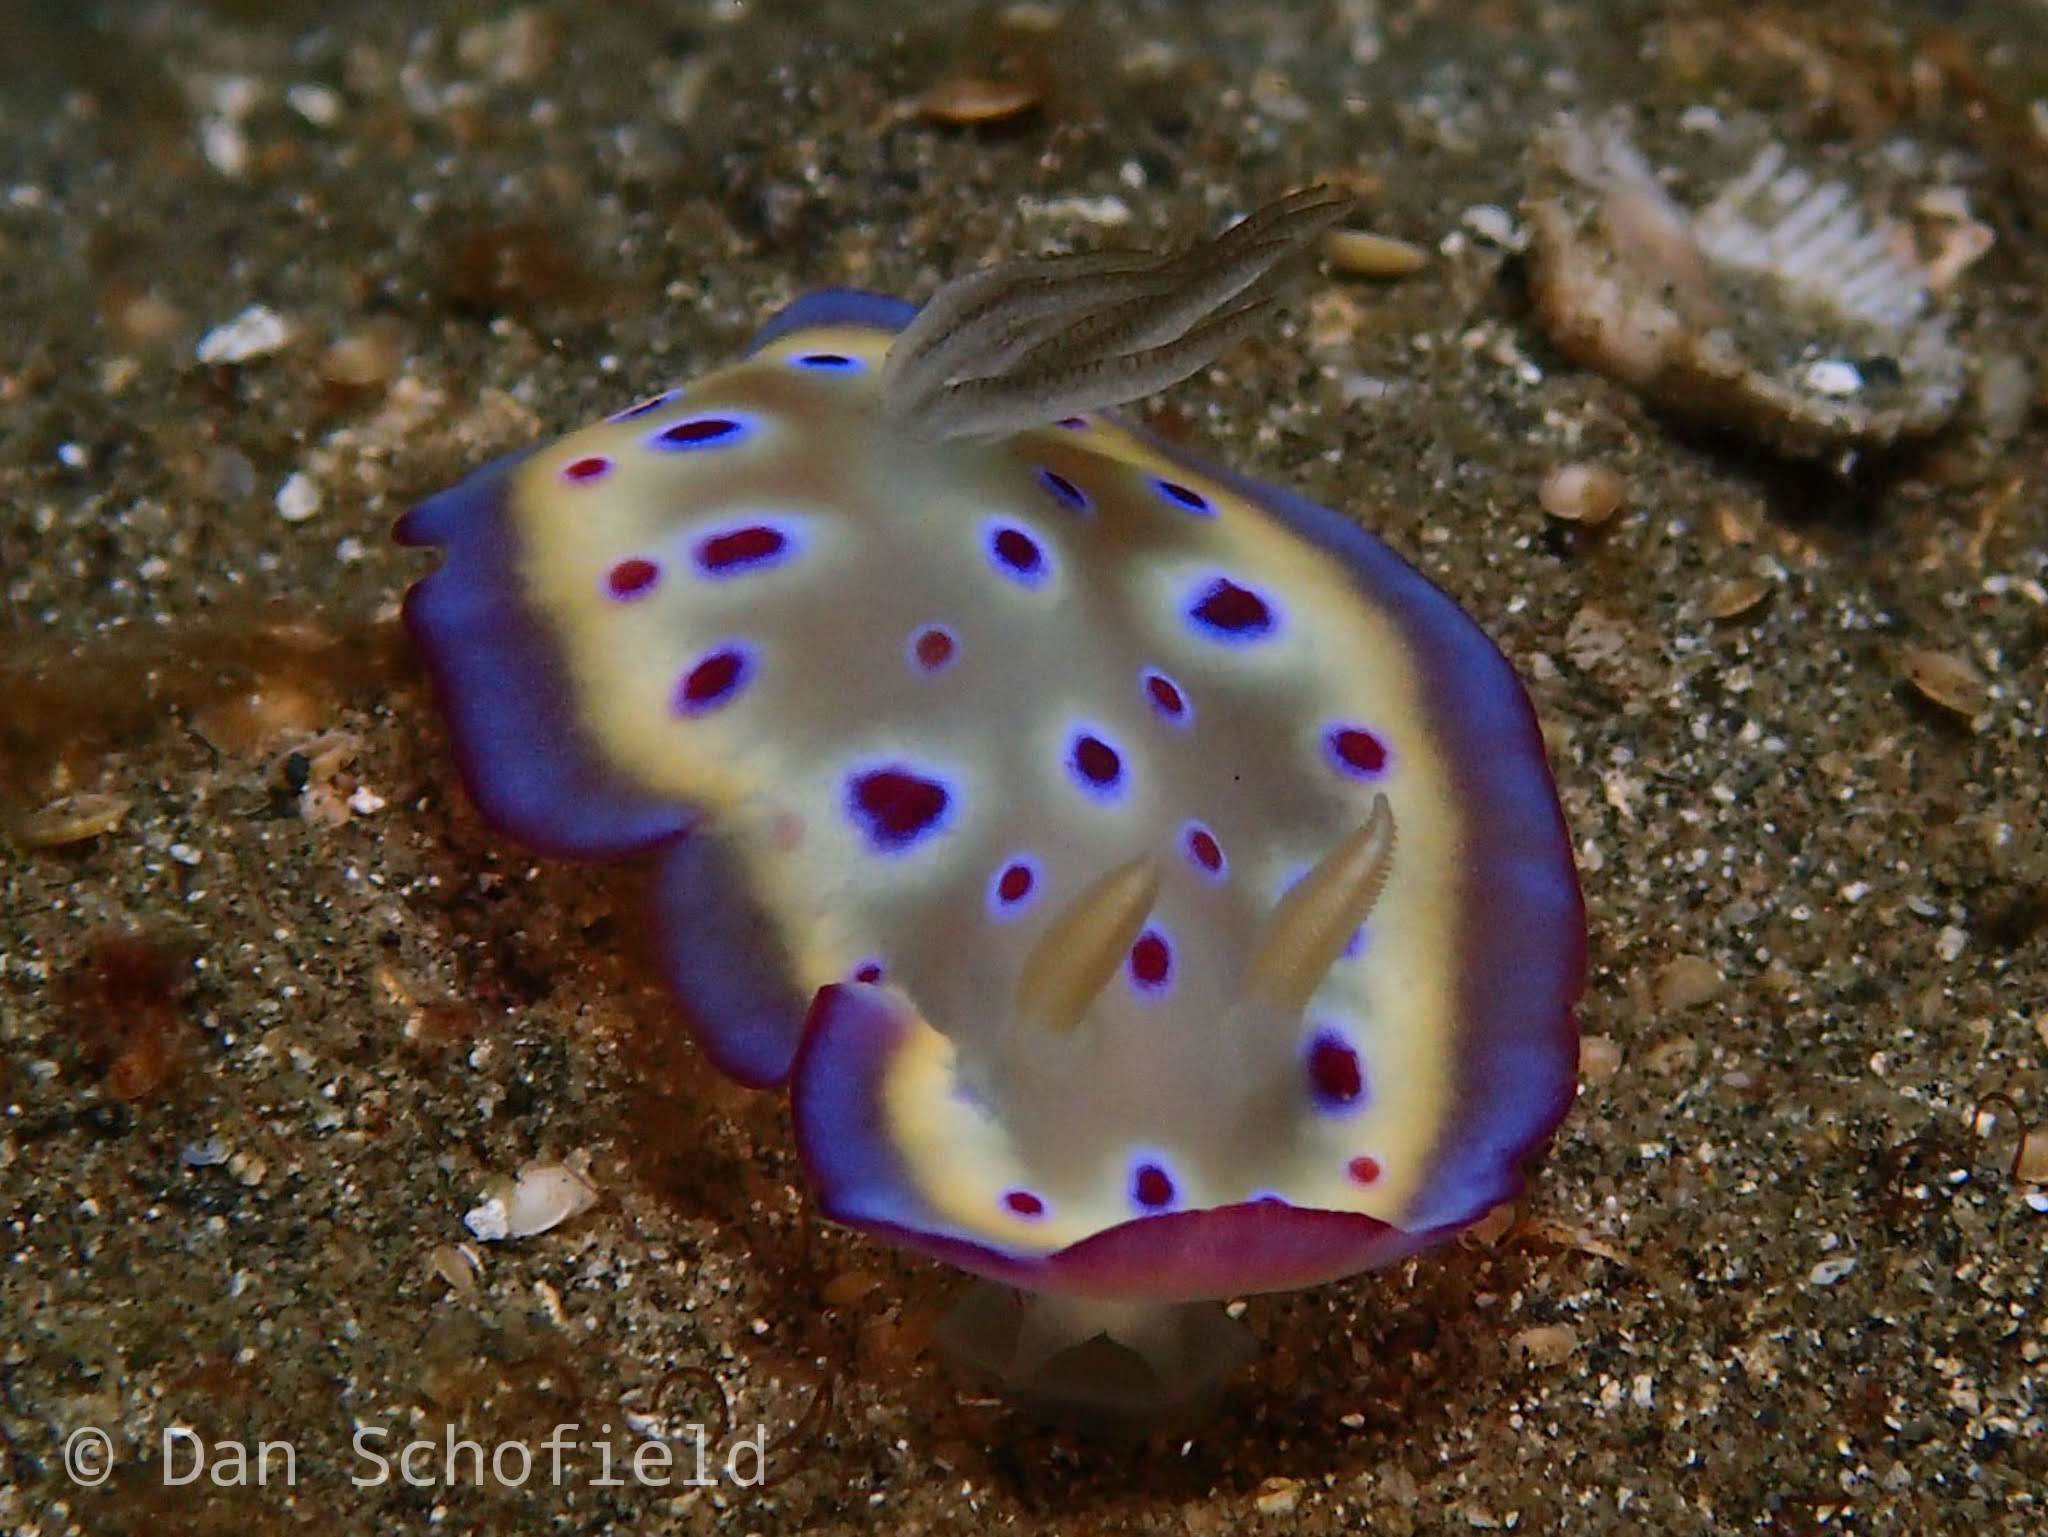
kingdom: Animalia
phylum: Mollusca
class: Gastropoda
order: Nudibranchia
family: Chromodorididae
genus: Goniobranchus
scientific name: Goniobranchus kuniei
